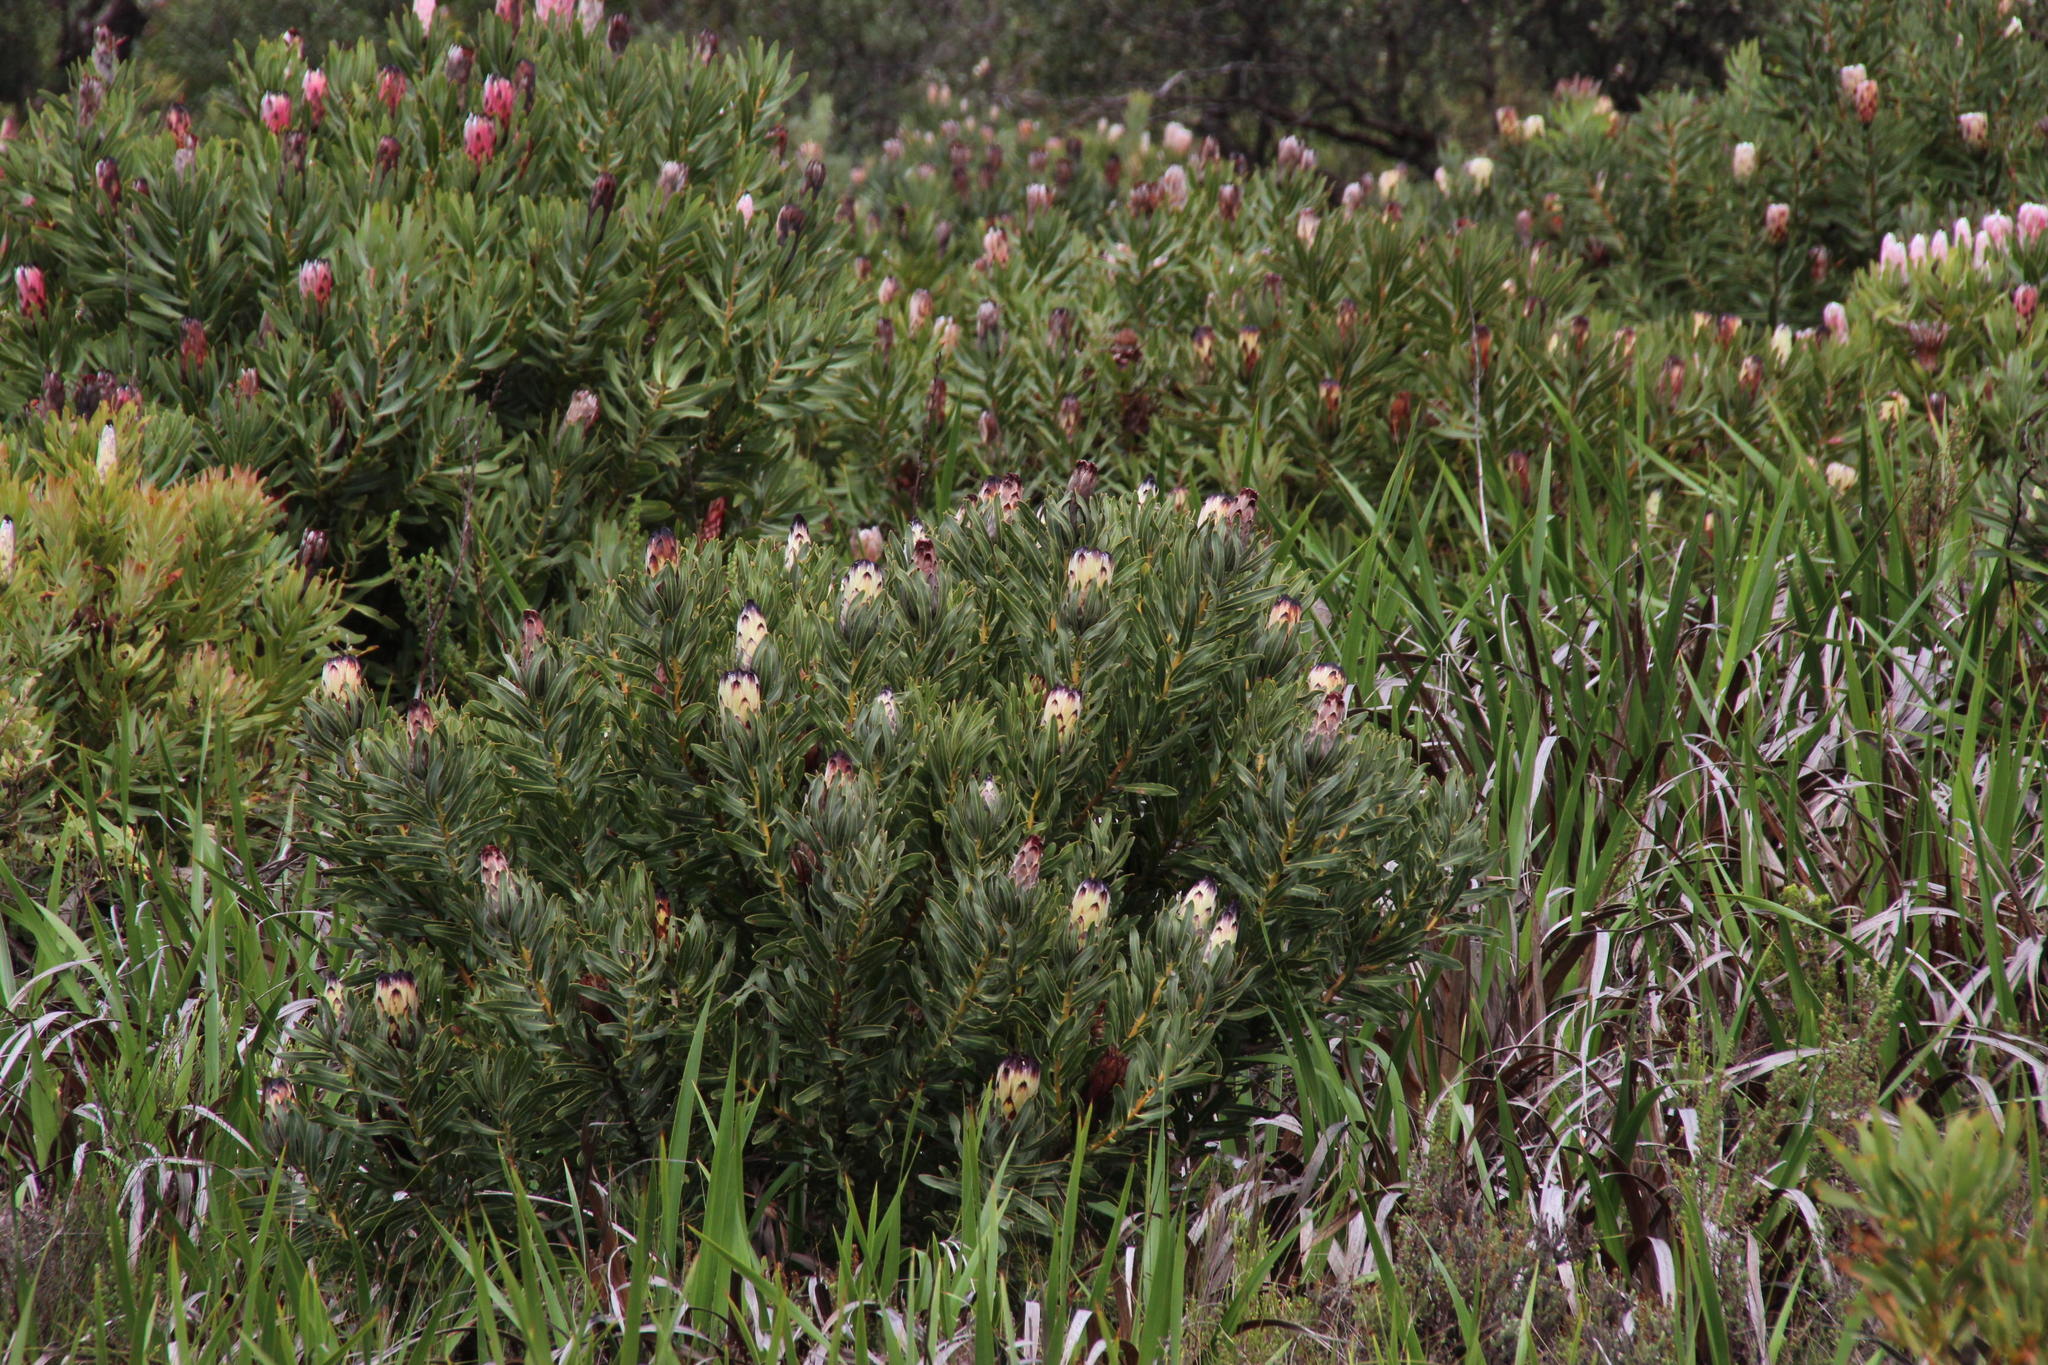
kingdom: Plantae
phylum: Tracheophyta
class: Magnoliopsida
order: Proteales
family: Proteaceae
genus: Protea
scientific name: Protea
